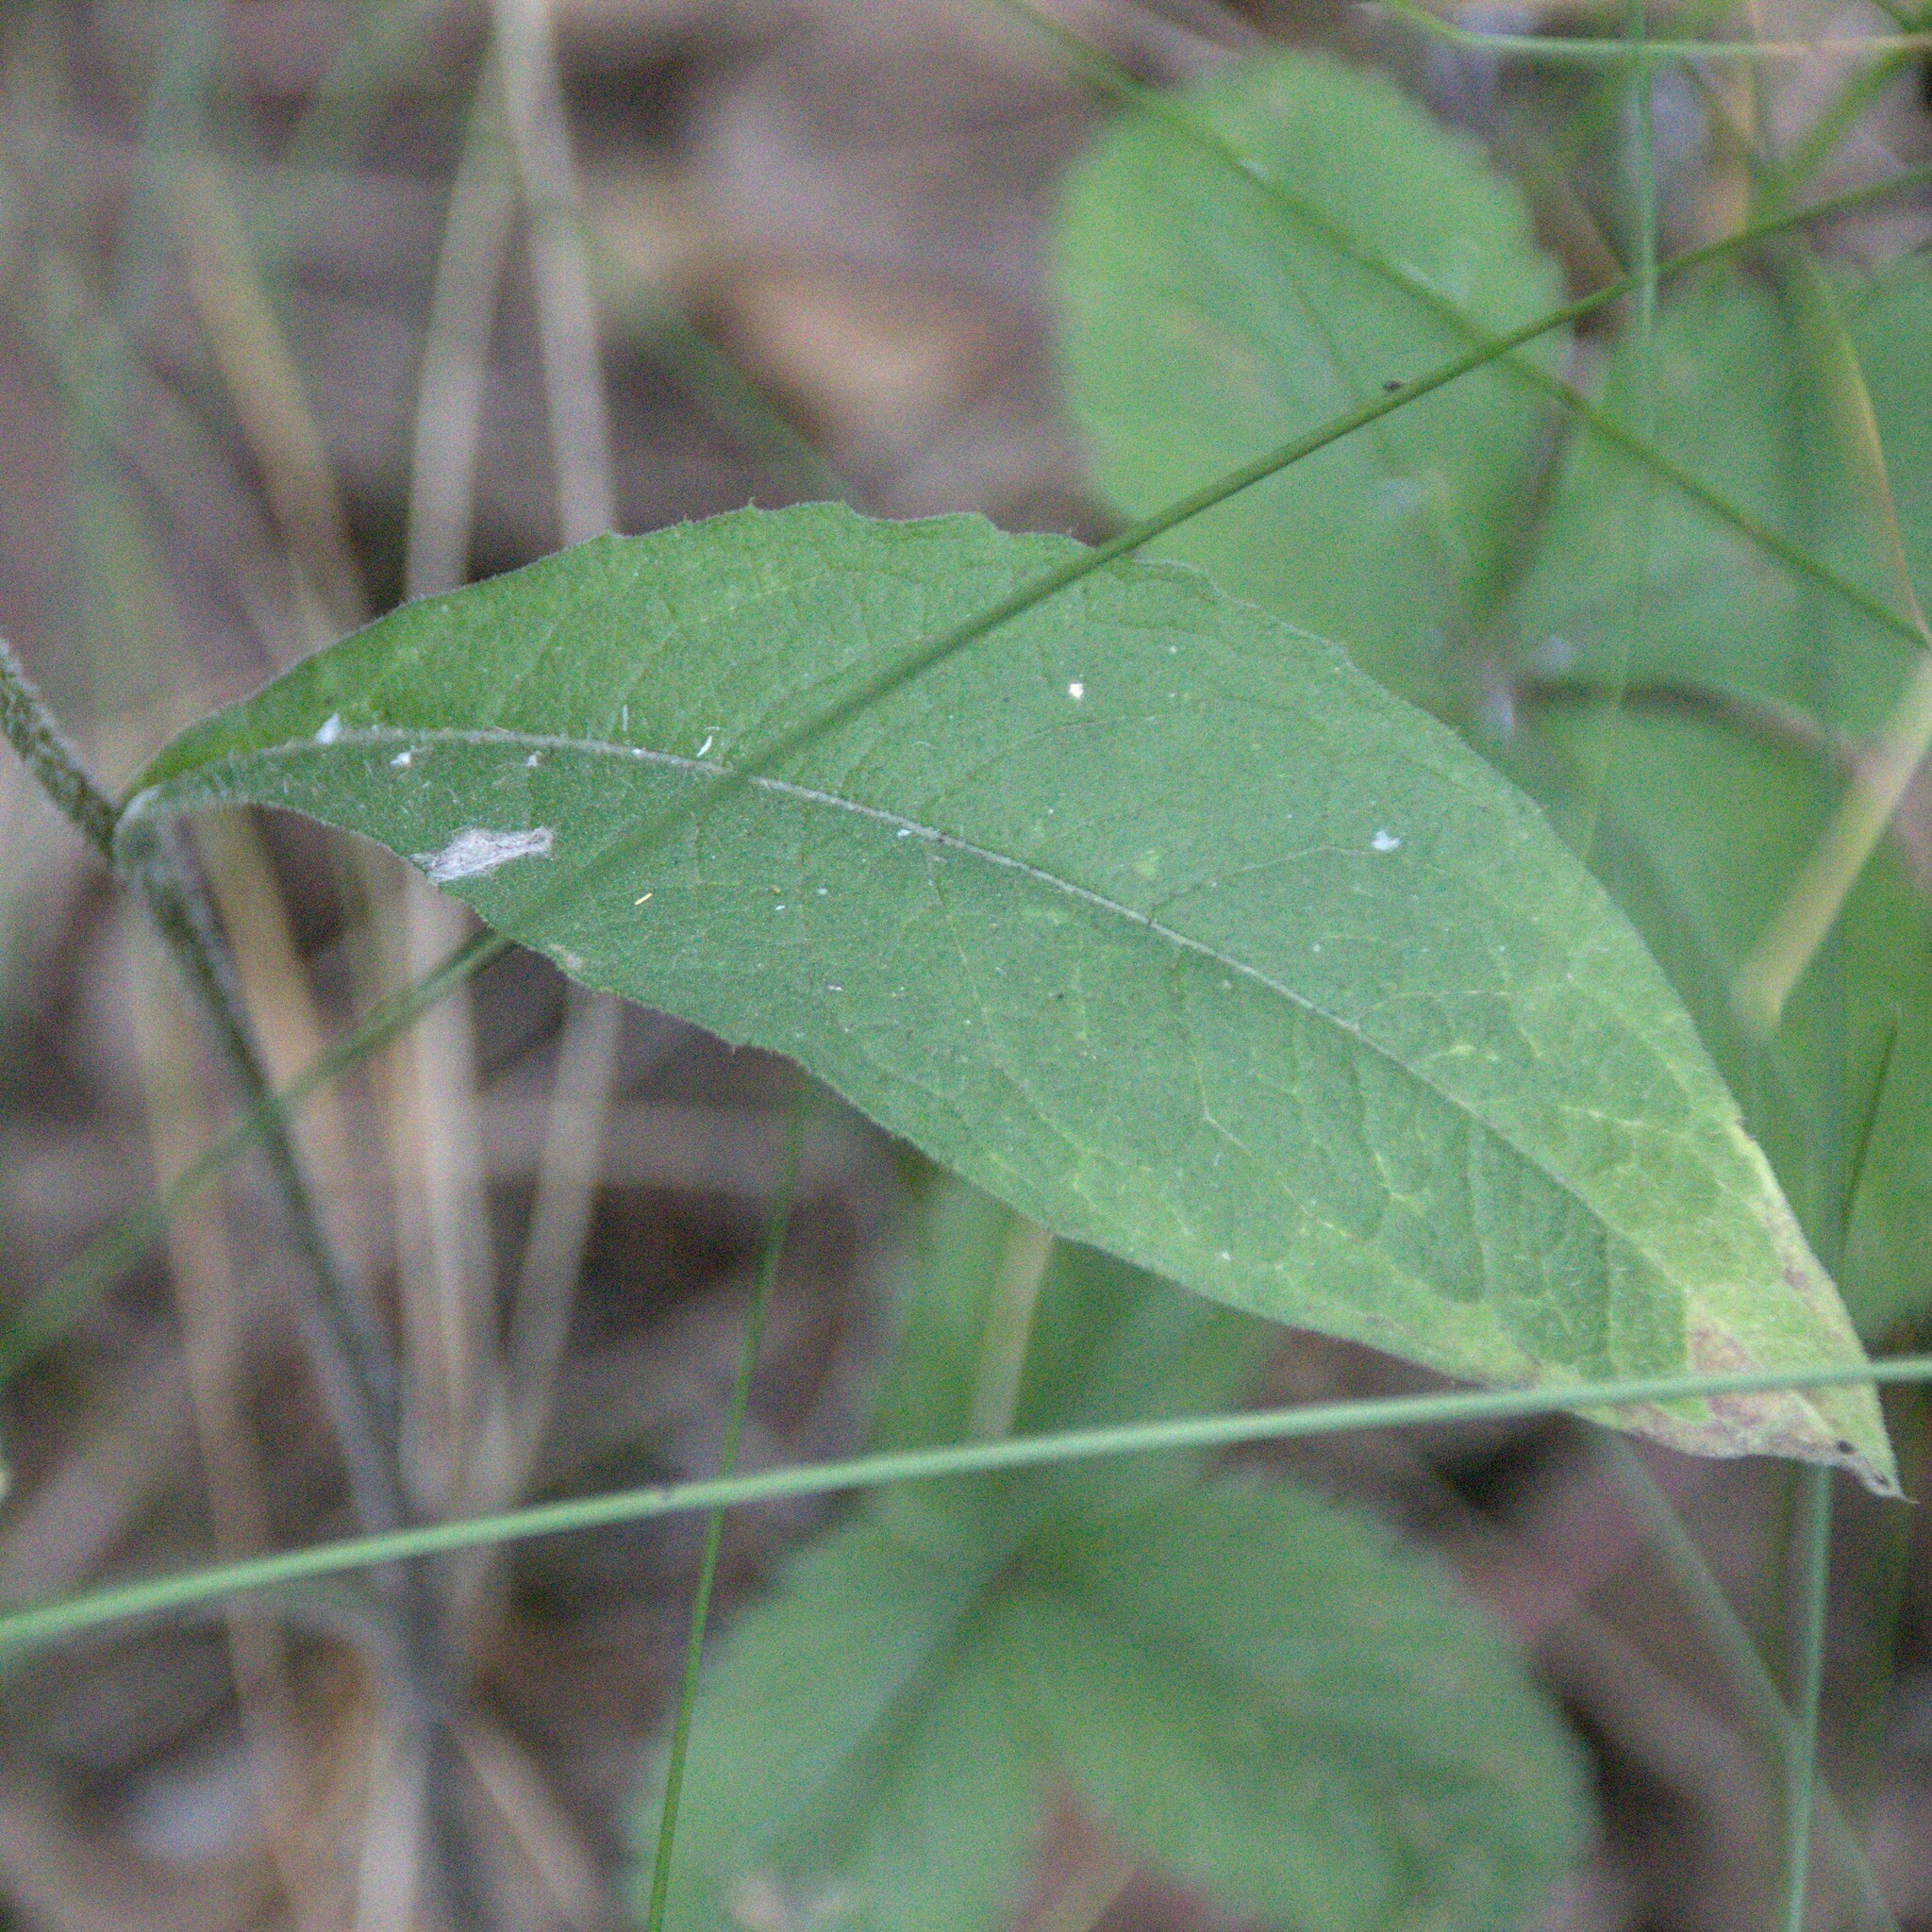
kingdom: Plantae
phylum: Tracheophyta
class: Magnoliopsida
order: Asterales
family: Asteraceae
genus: Centaurea
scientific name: Centaurea phrygia
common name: Wig knapweed
